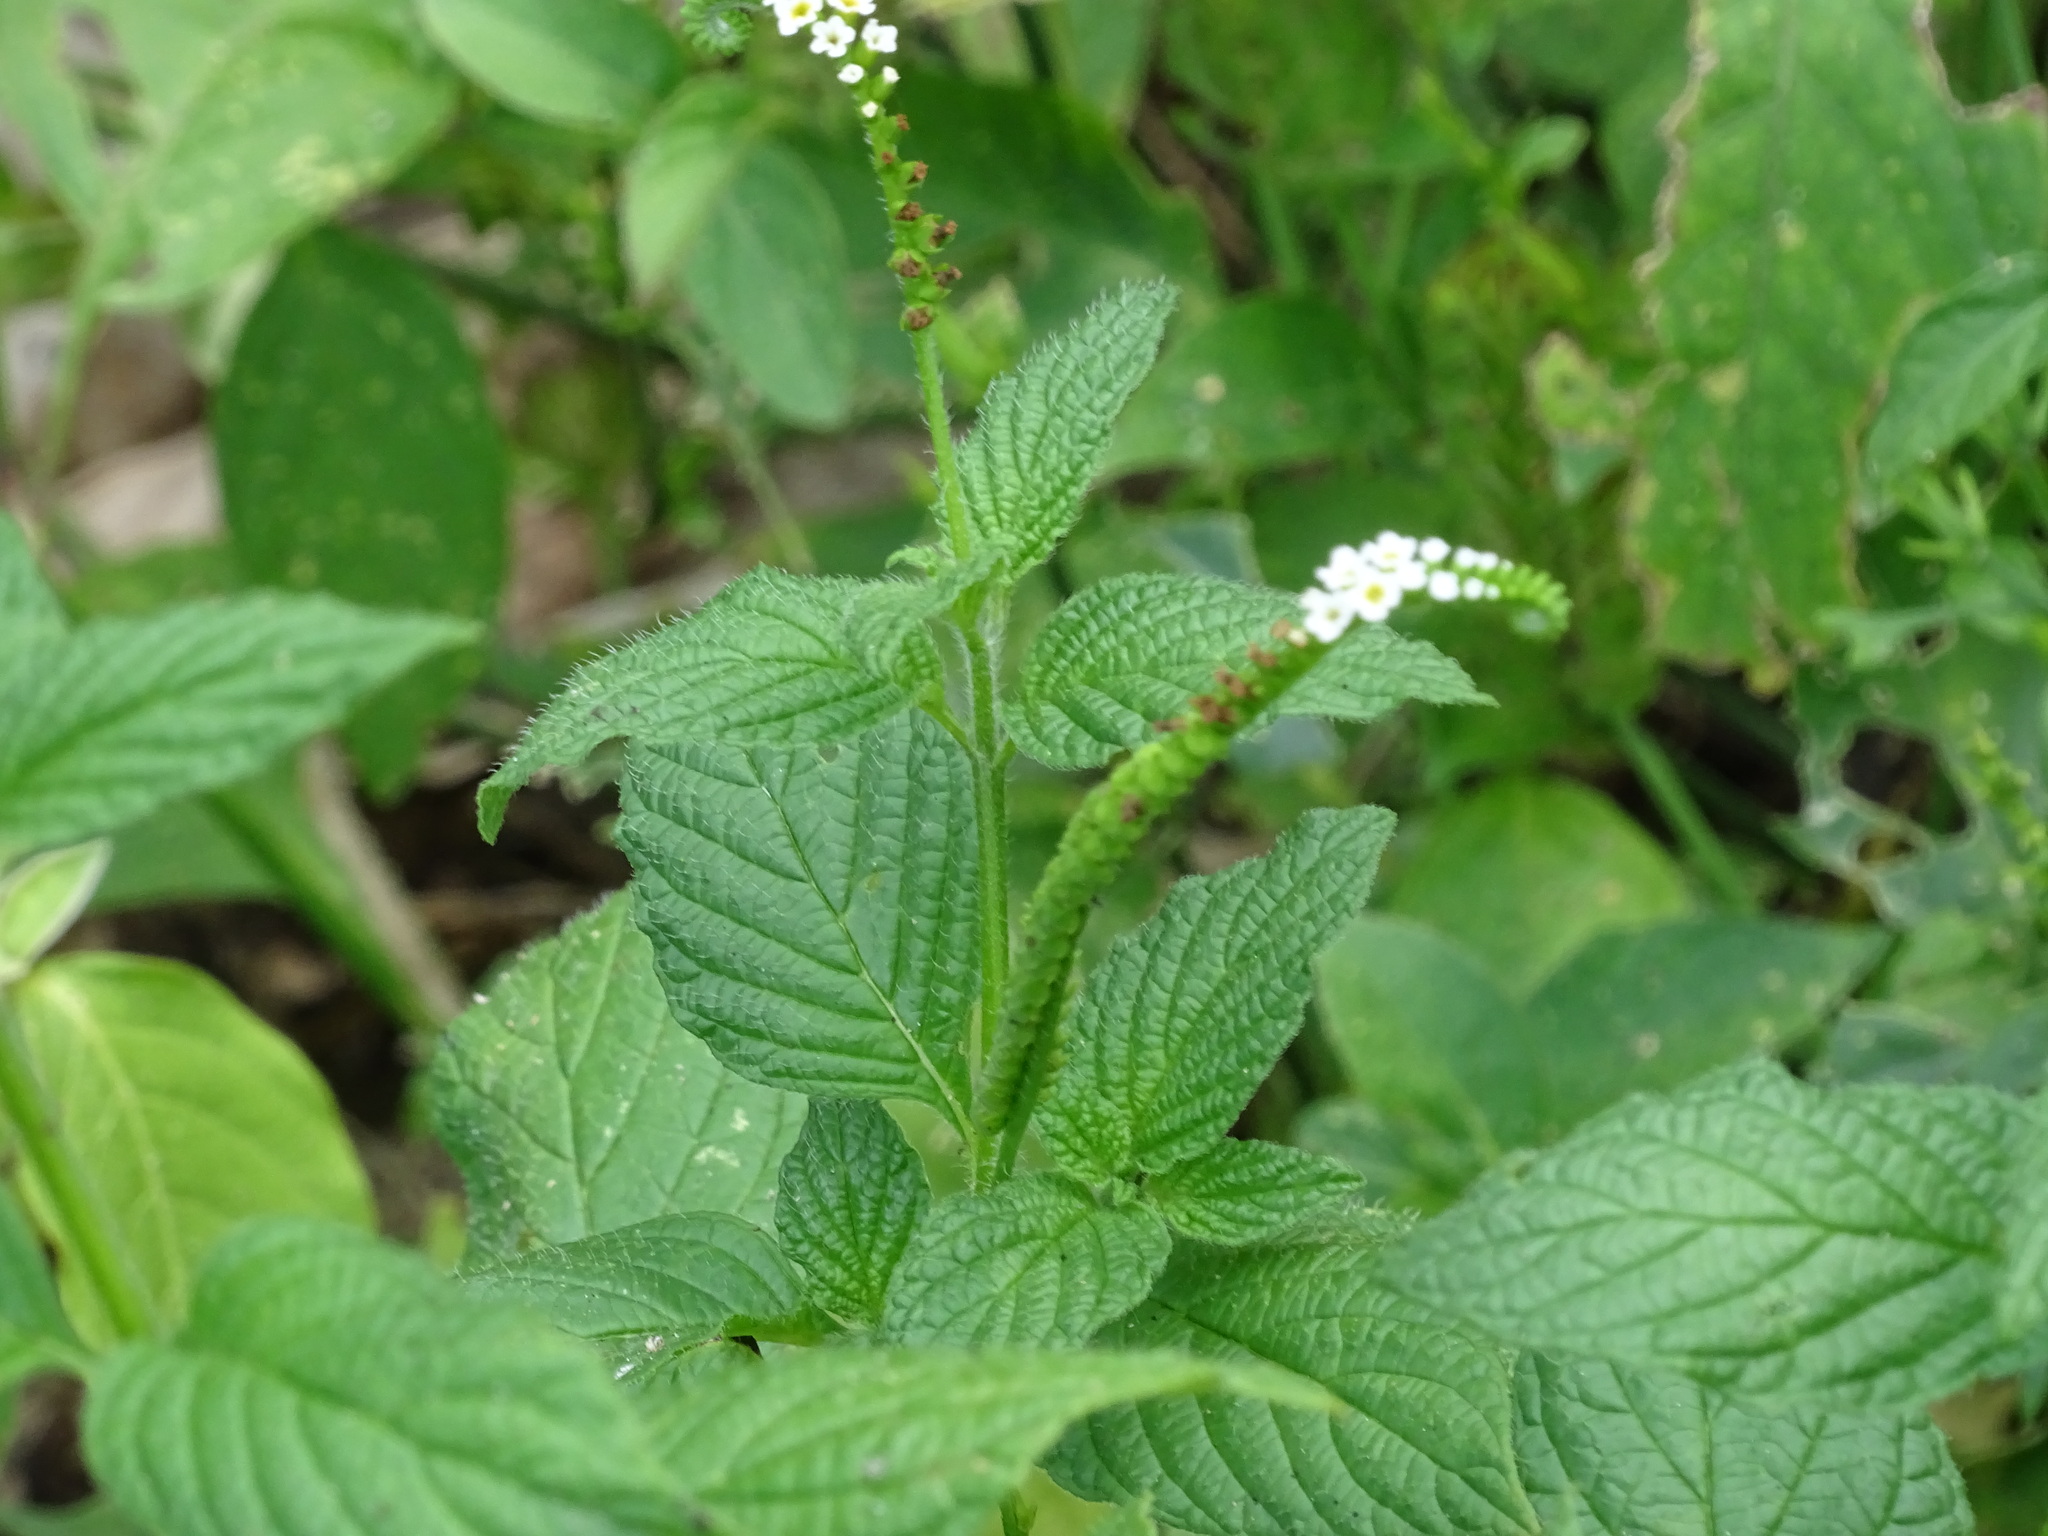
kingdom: Plantae
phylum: Tracheophyta
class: Magnoliopsida
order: Boraginales
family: Heliotropiaceae
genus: Heliotropium
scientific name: Heliotropium angiospermum
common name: Eye bright
